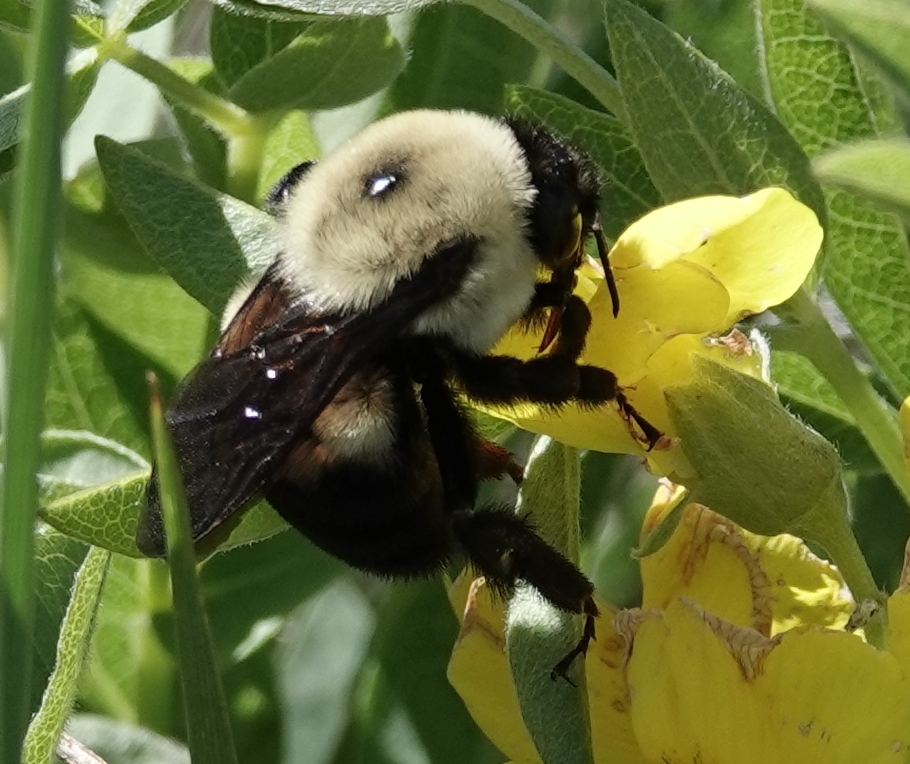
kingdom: Animalia
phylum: Arthropoda
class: Insecta
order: Hymenoptera
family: Apidae
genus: Bombus
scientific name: Bombus griseocollis
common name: Brown-belted bumble bee
